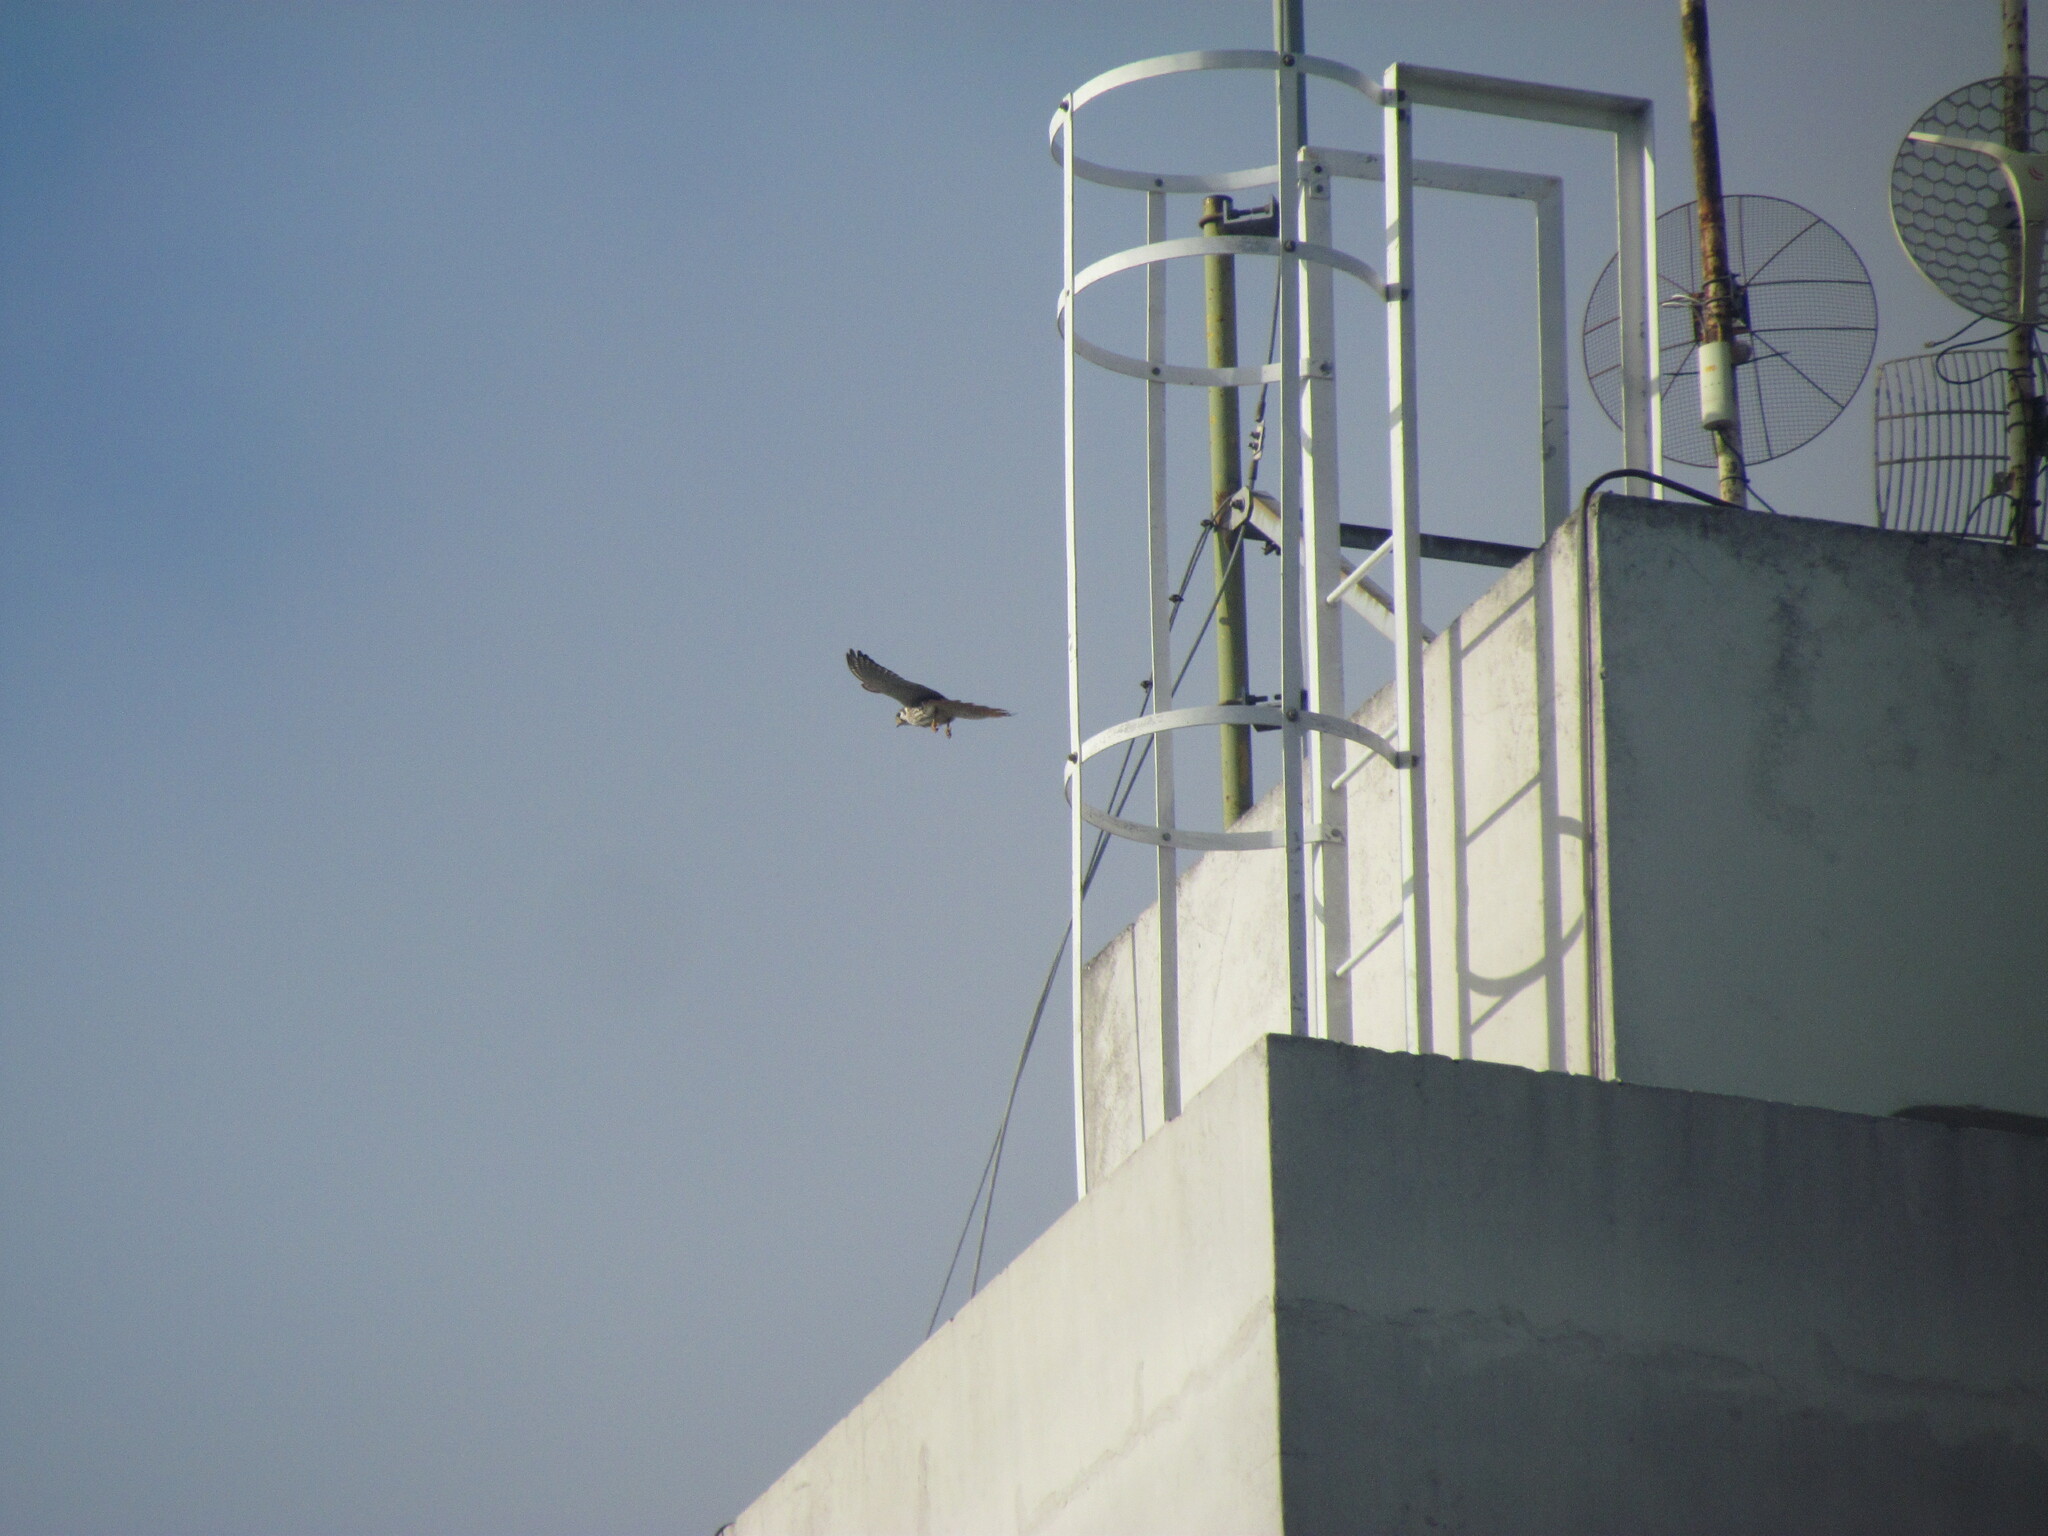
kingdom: Animalia
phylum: Chordata
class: Aves
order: Falconiformes
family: Falconidae
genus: Falco
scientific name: Falco sparverius
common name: American kestrel
